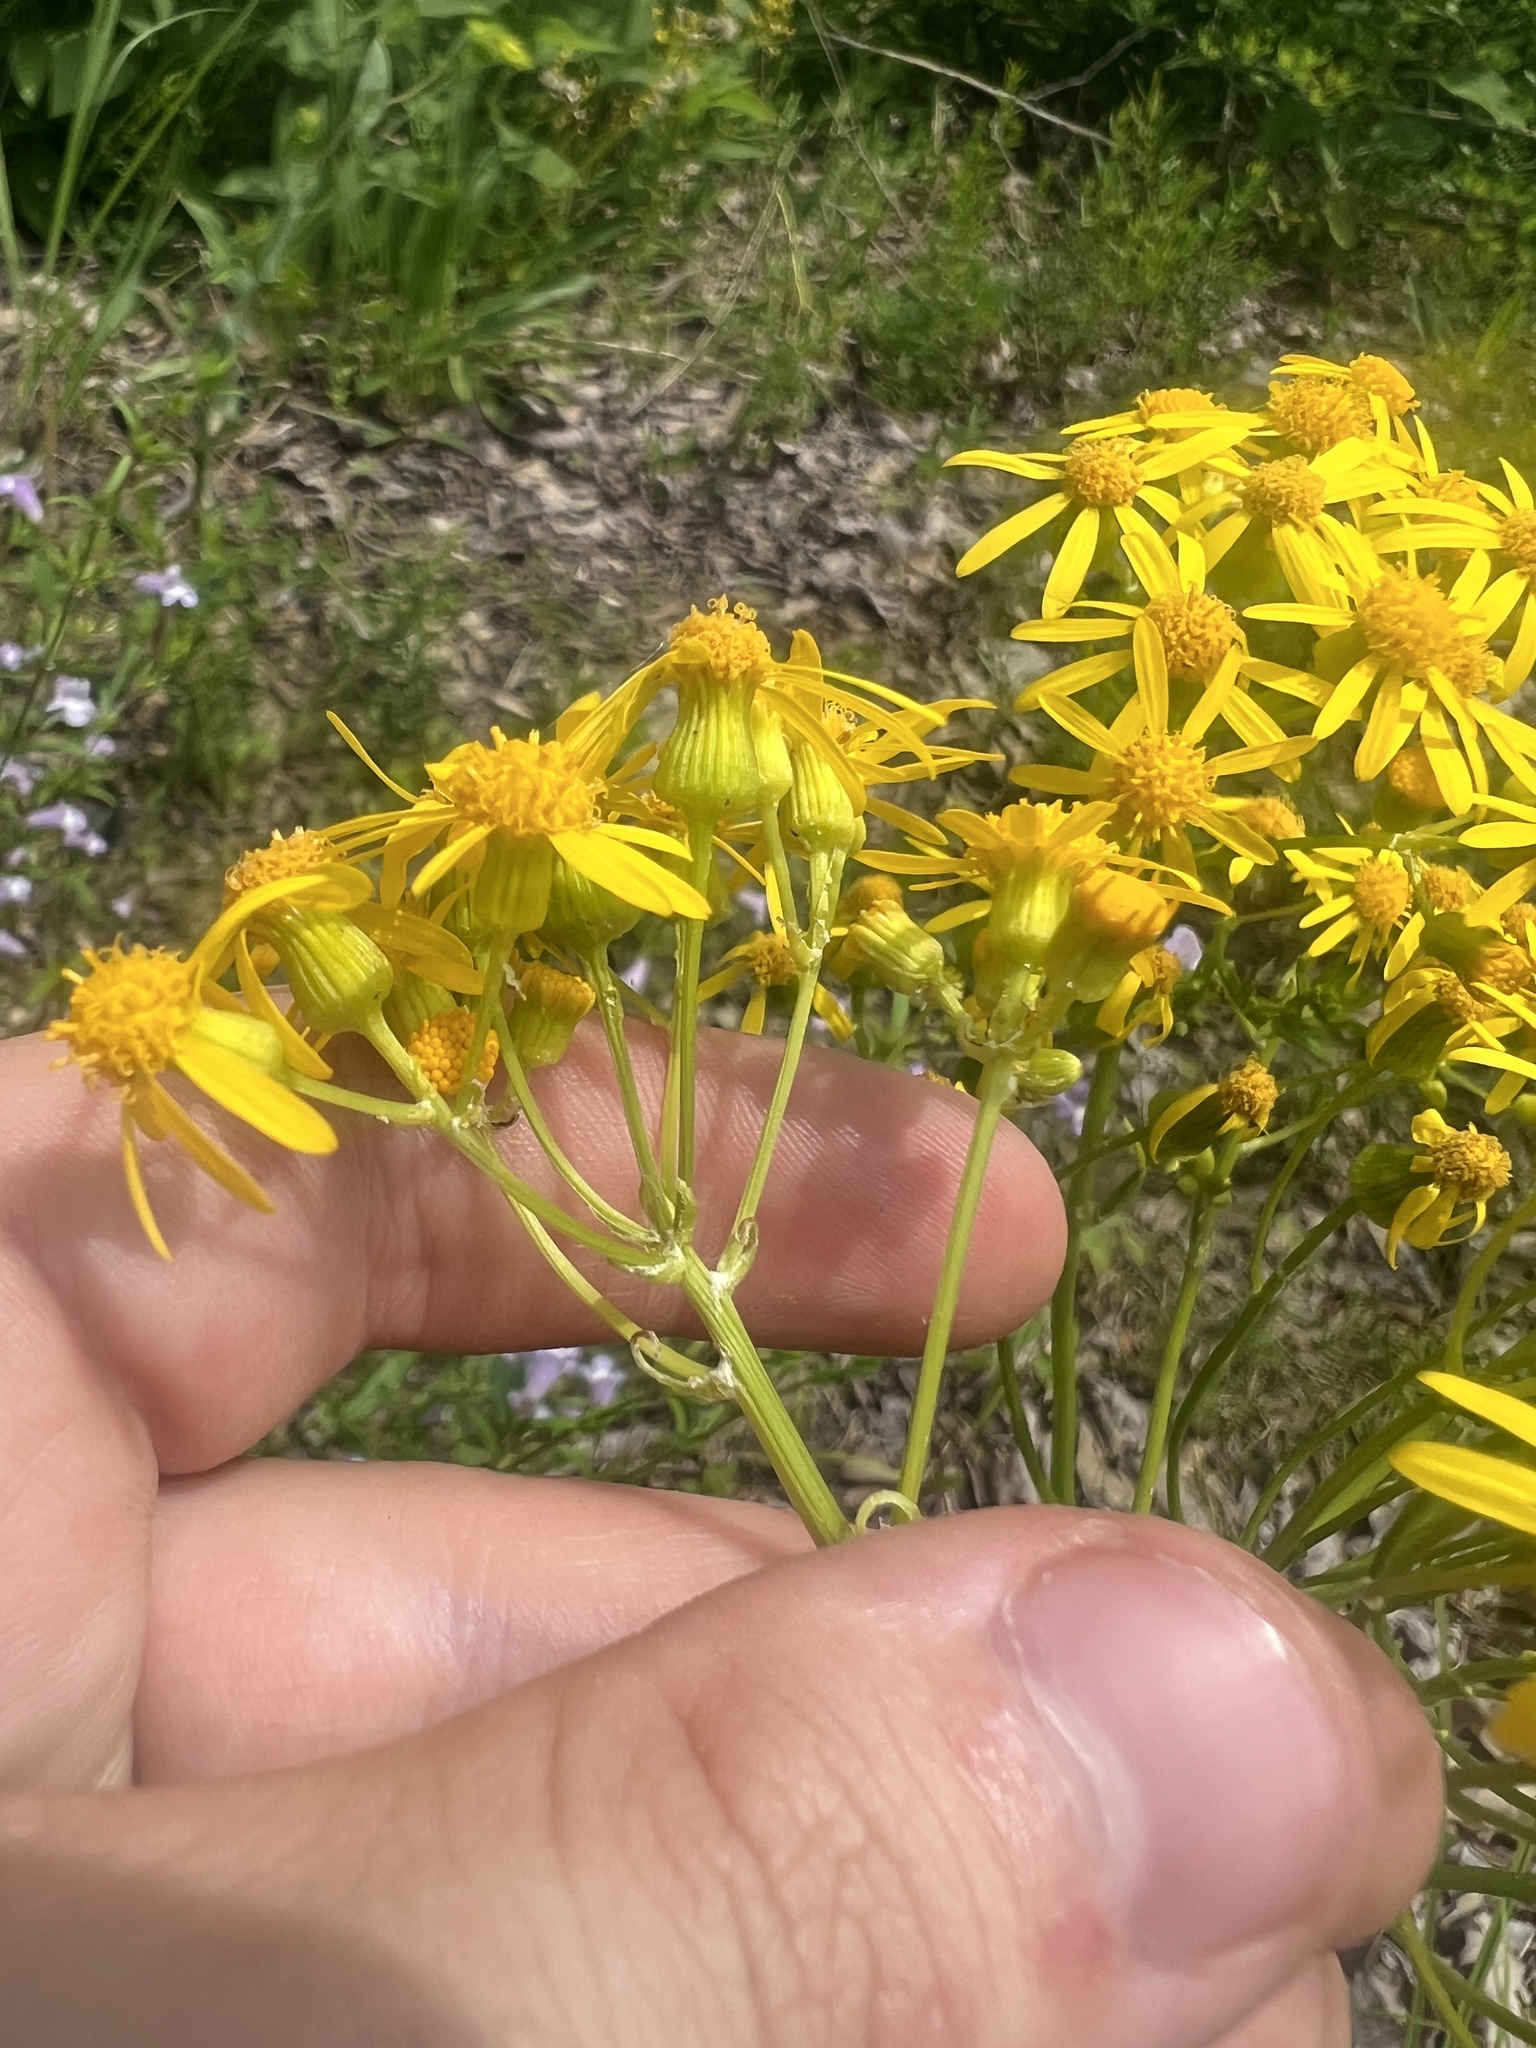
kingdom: Plantae
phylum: Tracheophyta
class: Magnoliopsida
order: Asterales
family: Asteraceae
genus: Packera
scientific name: Packera anonyma
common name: Small ragwort
